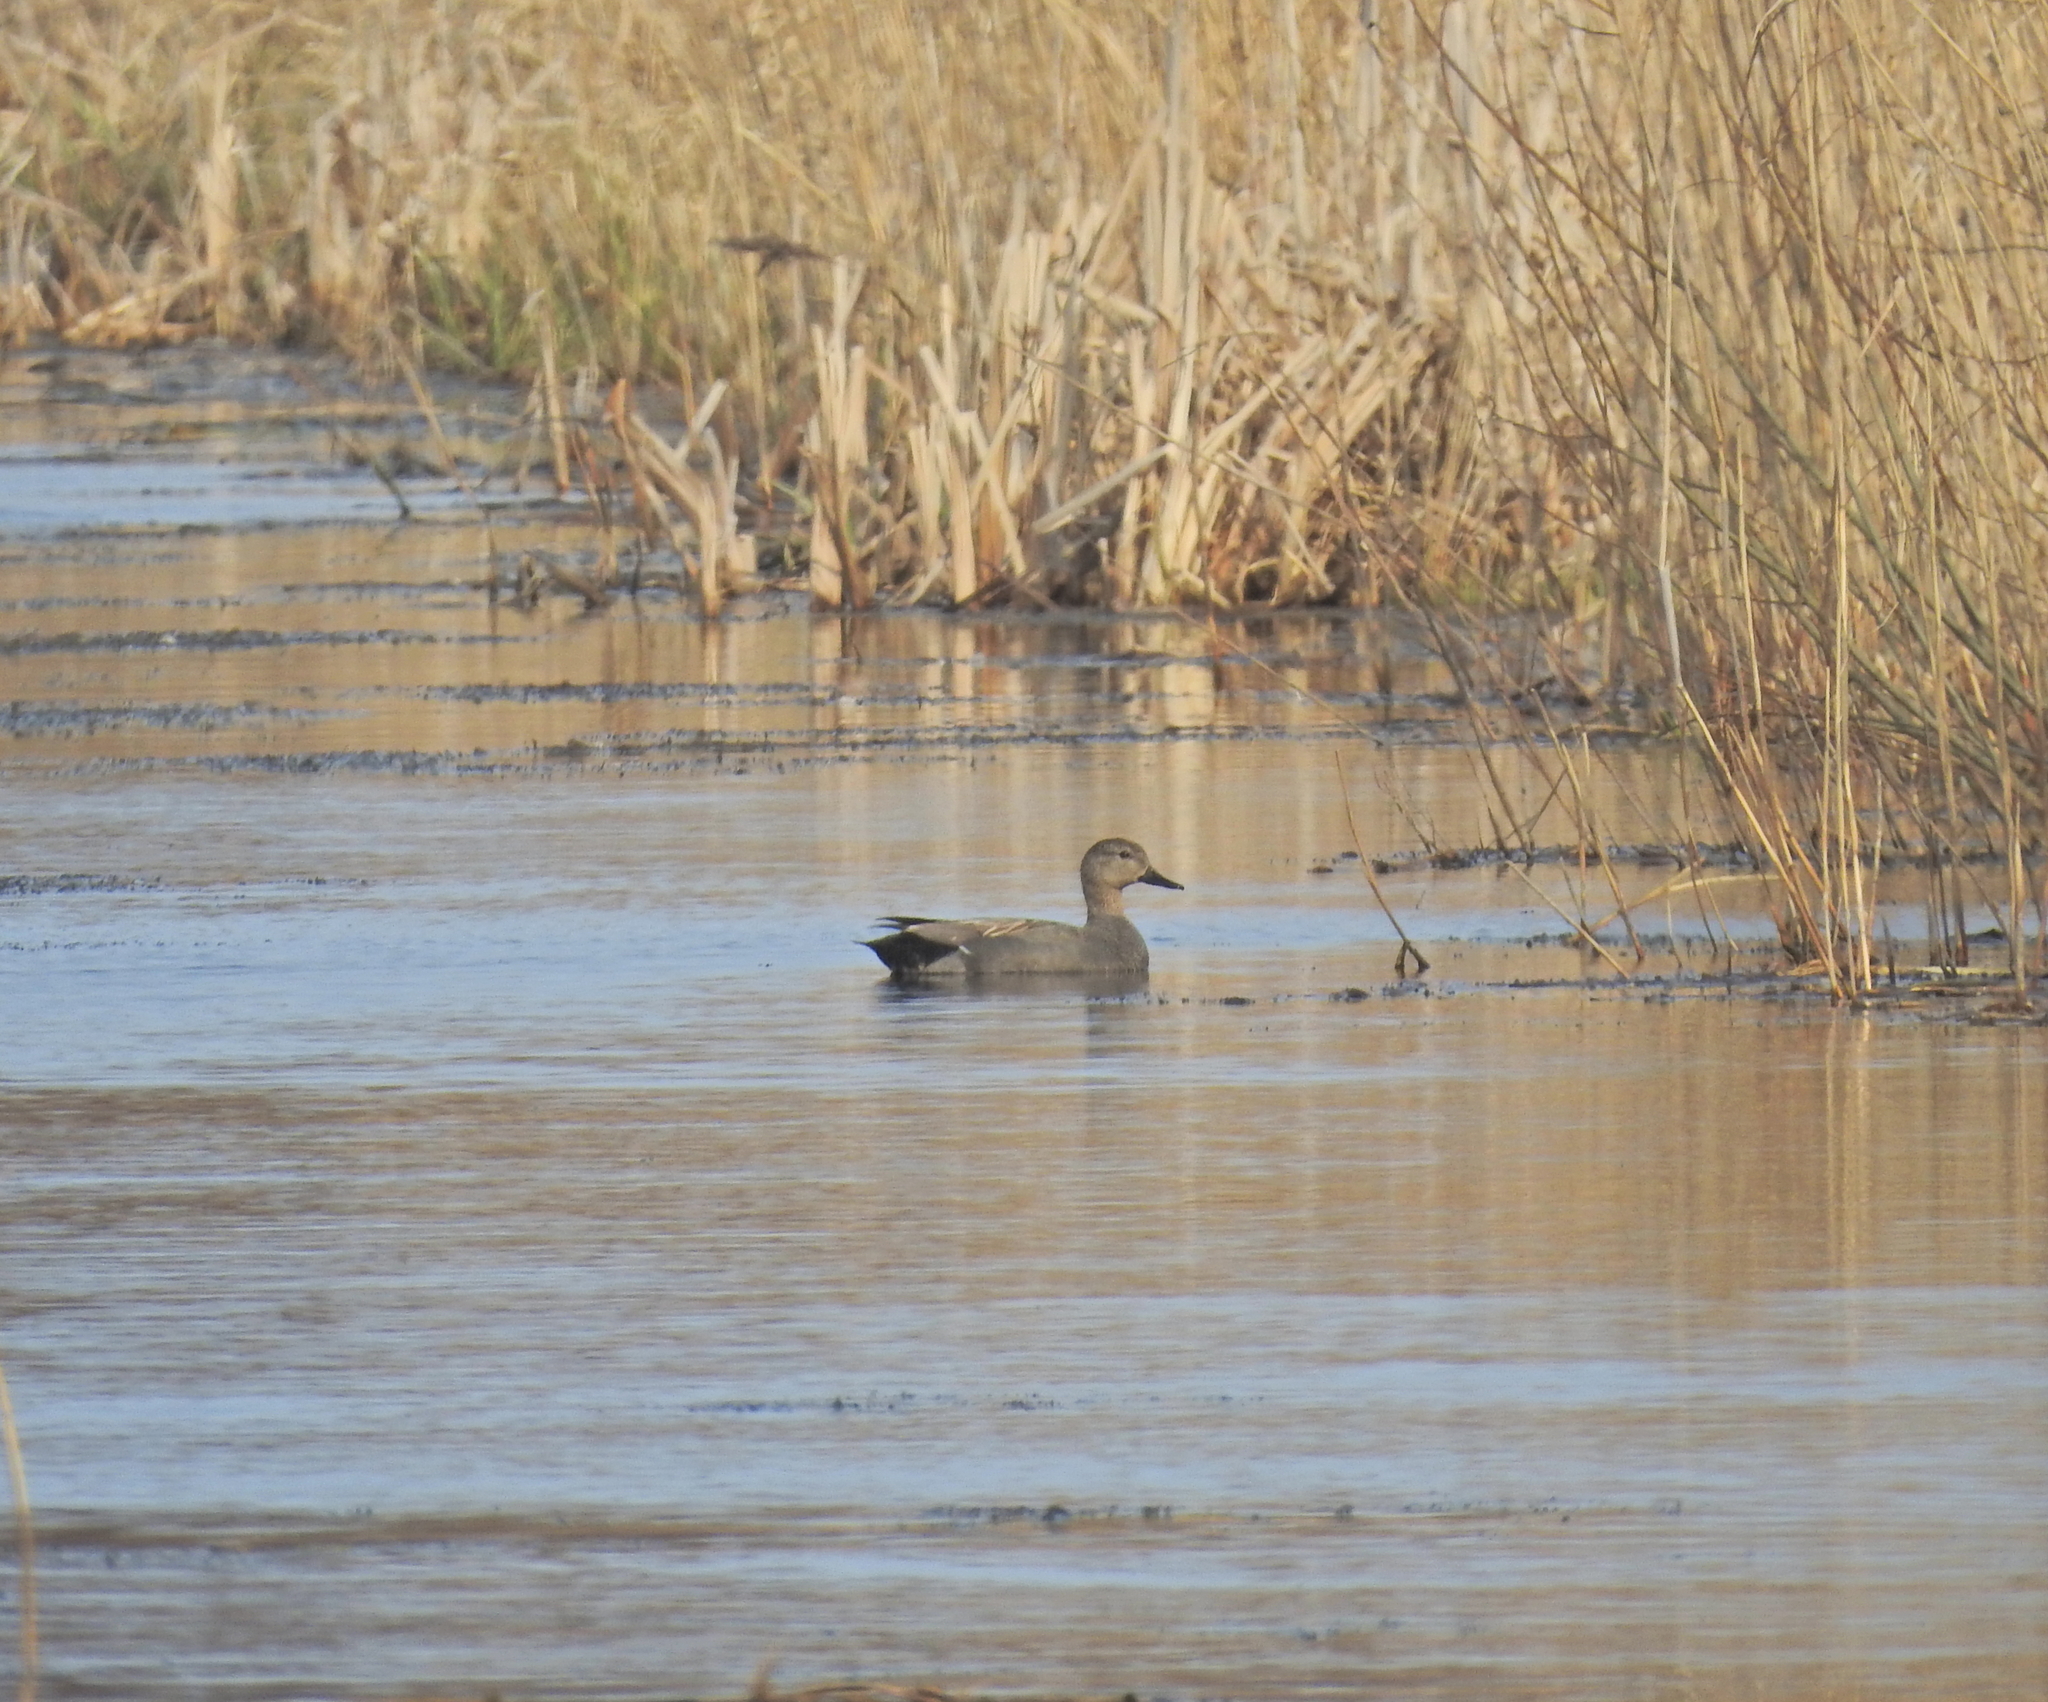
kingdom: Animalia
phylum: Chordata
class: Aves
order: Anseriformes
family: Anatidae
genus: Mareca
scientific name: Mareca strepera
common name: Gadwall
